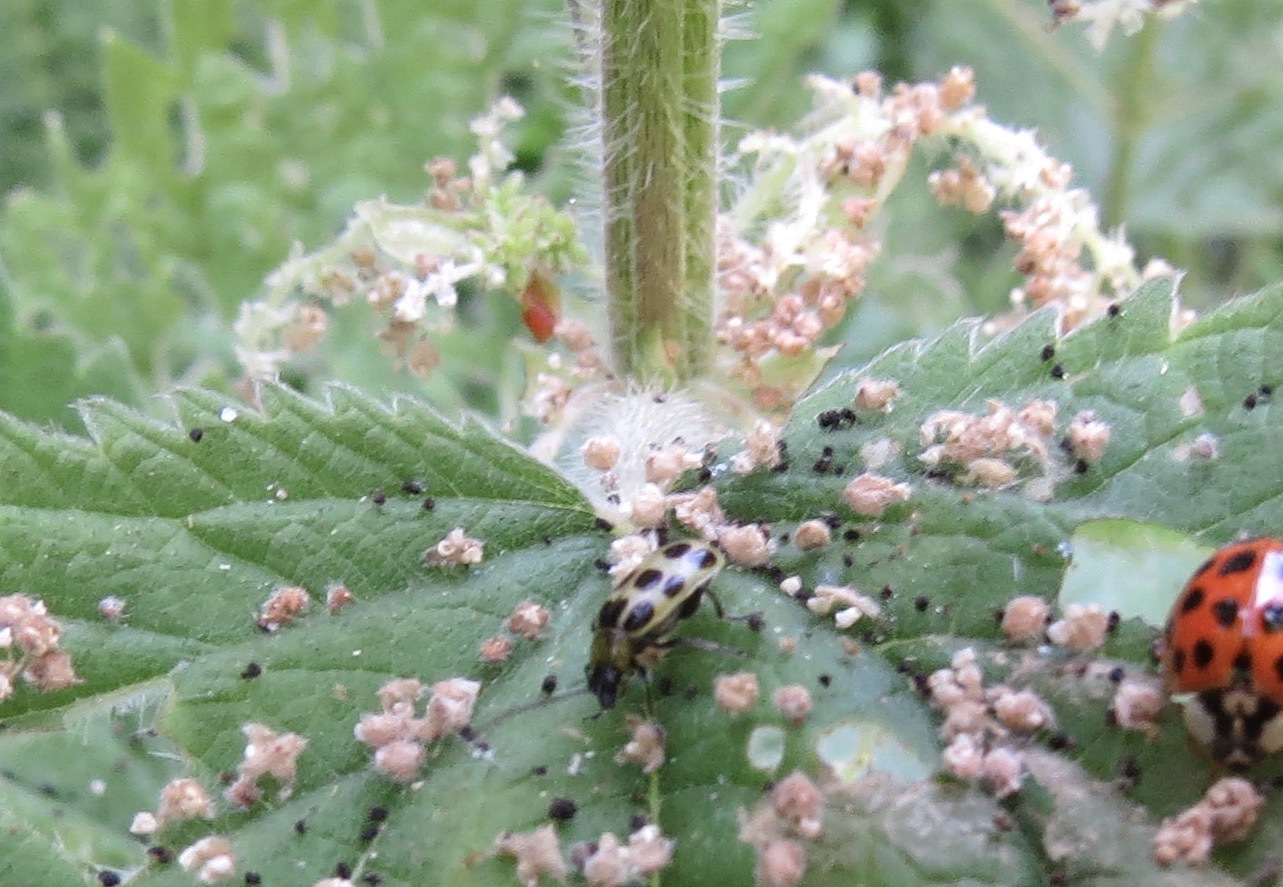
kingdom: Animalia
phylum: Arthropoda
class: Insecta
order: Coleoptera
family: Chrysomelidae
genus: Diabrotica
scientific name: Diabrotica undecimpunctata
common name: Spotted cucumber beetle
